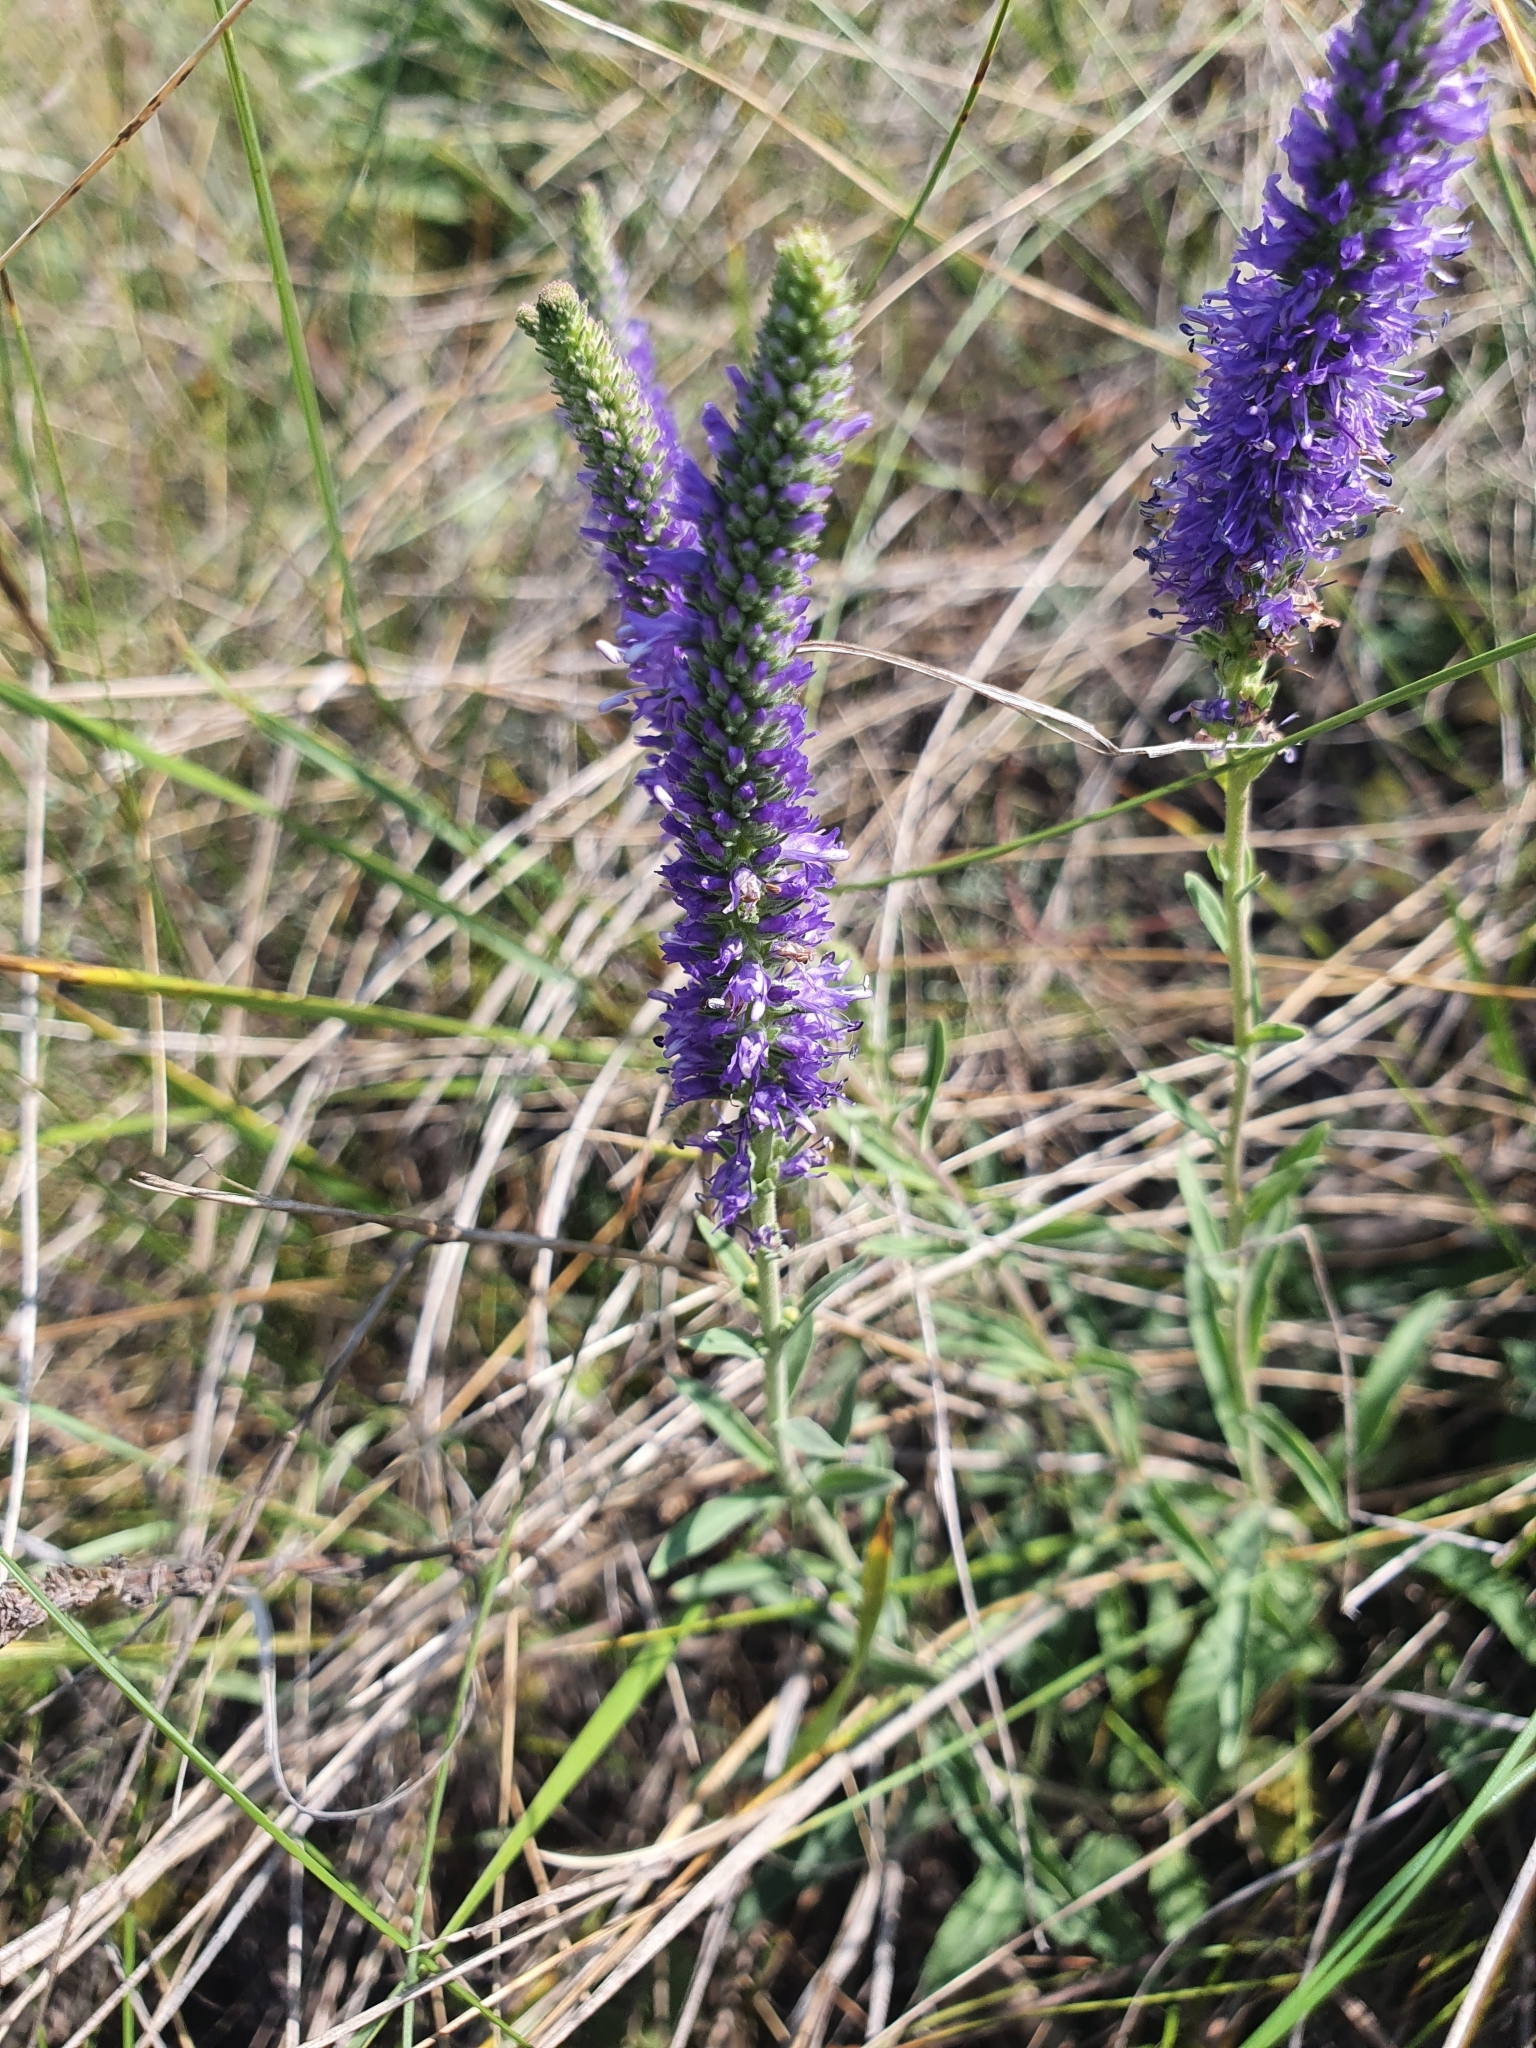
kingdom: Plantae
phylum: Tracheophyta
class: Magnoliopsida
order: Lamiales
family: Plantaginaceae
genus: Veronica
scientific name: Veronica spicata
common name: Spiked speedwell
